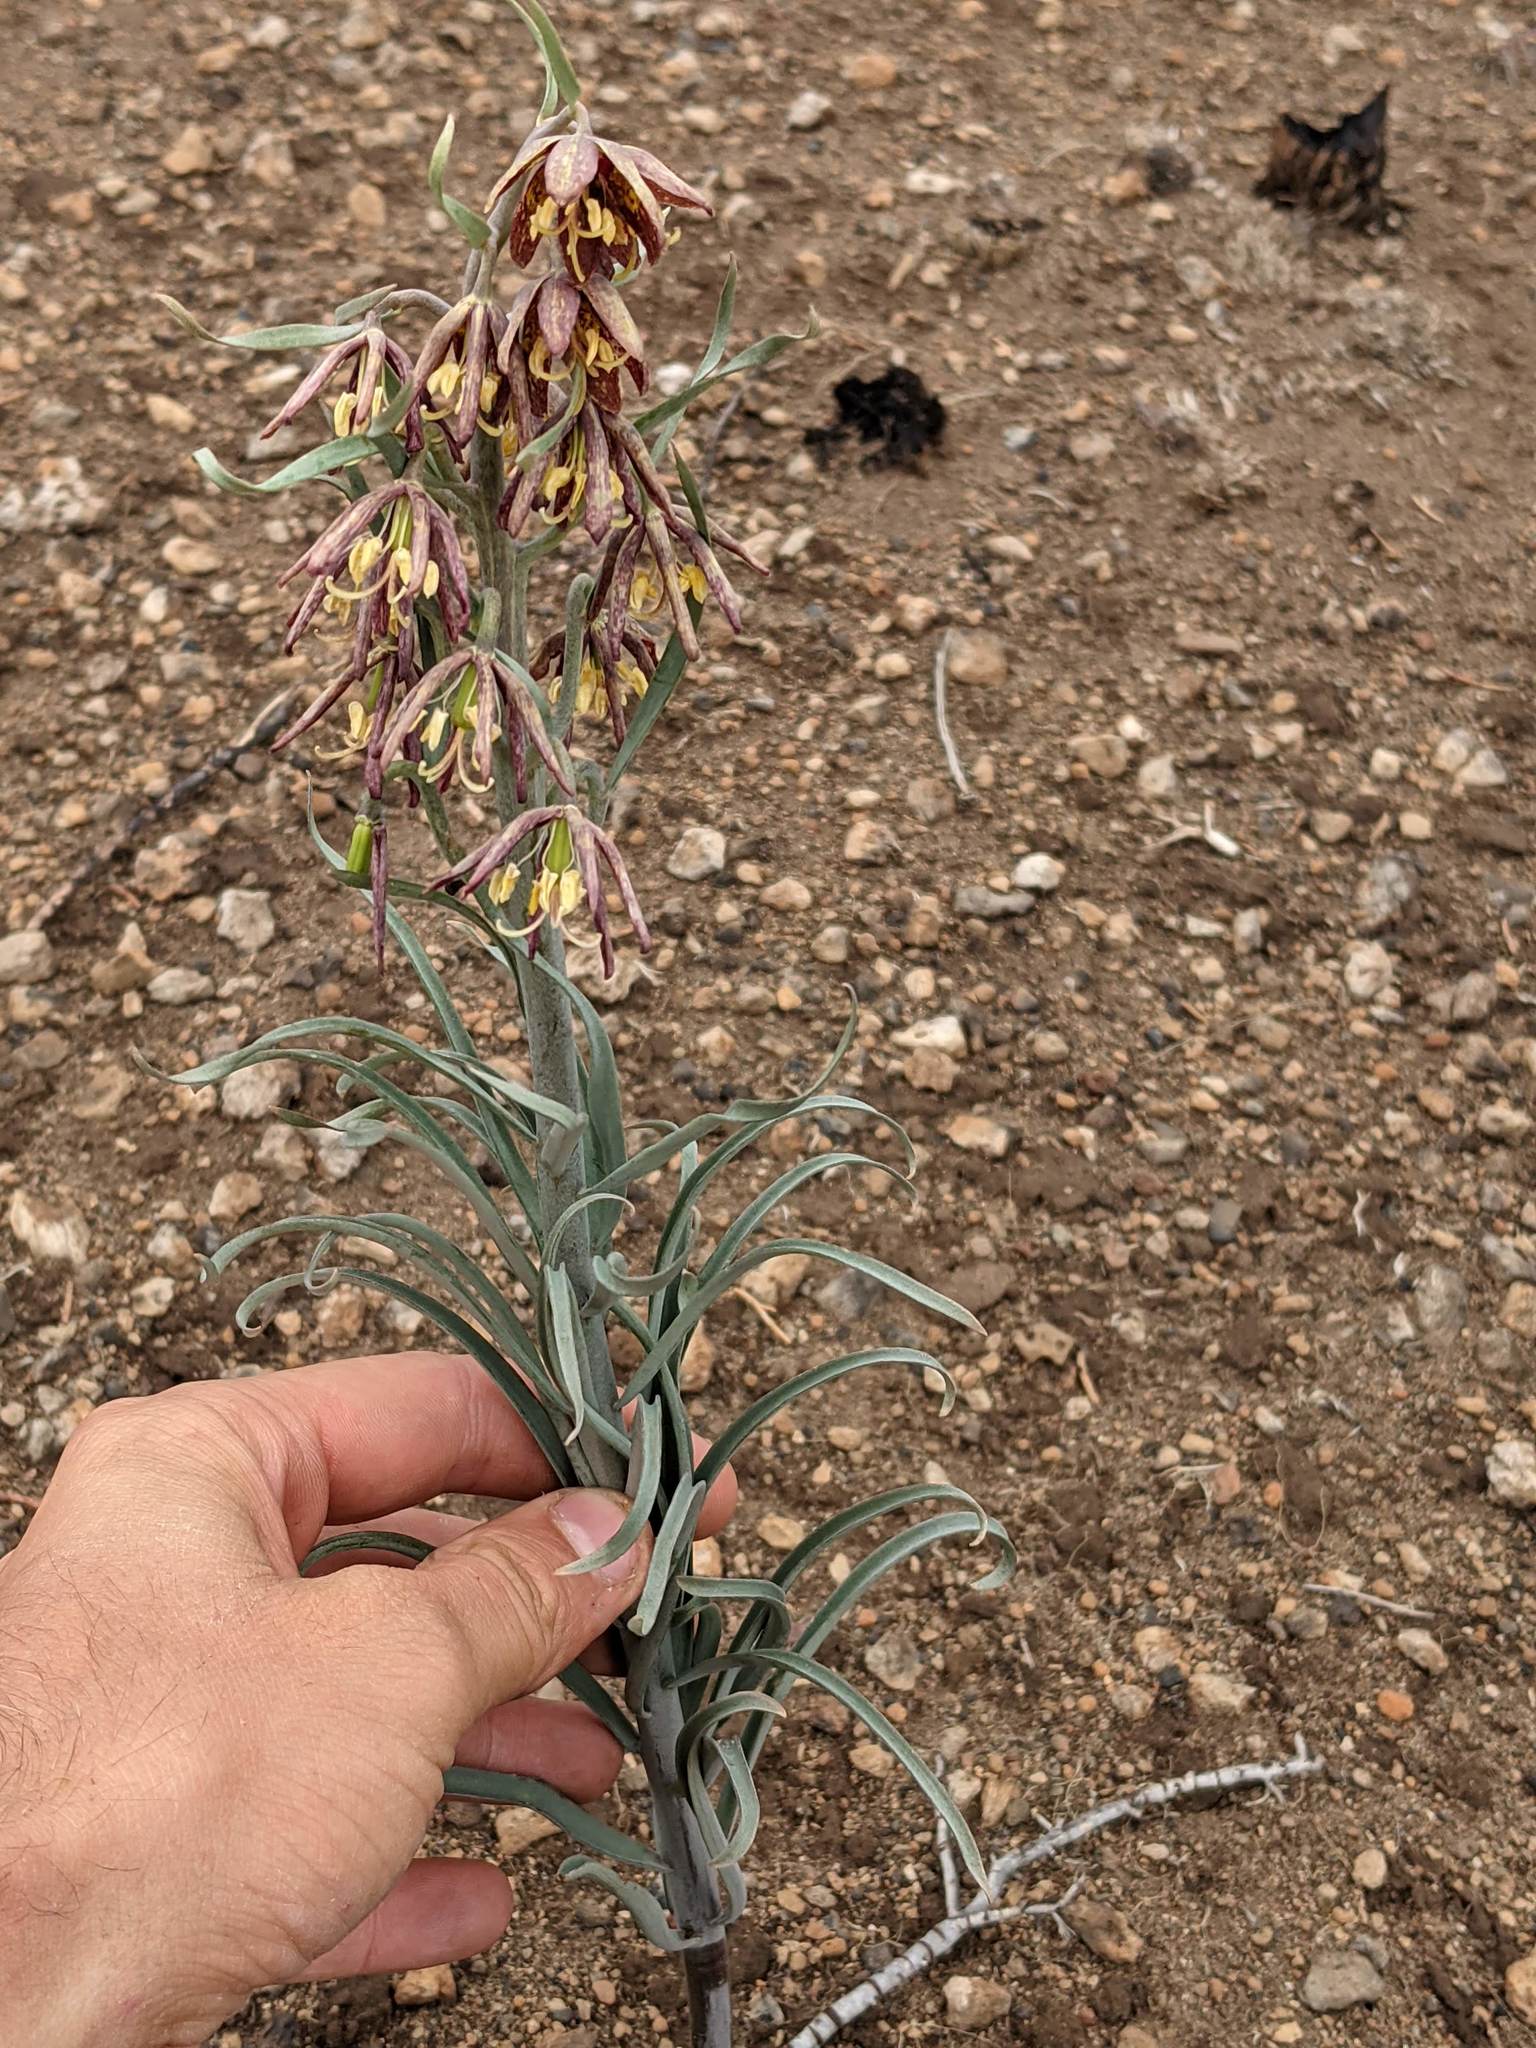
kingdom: Plantae
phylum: Tracheophyta
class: Liliopsida
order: Liliales
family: Liliaceae
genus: Fritillaria
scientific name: Fritillaria atropurpurea
